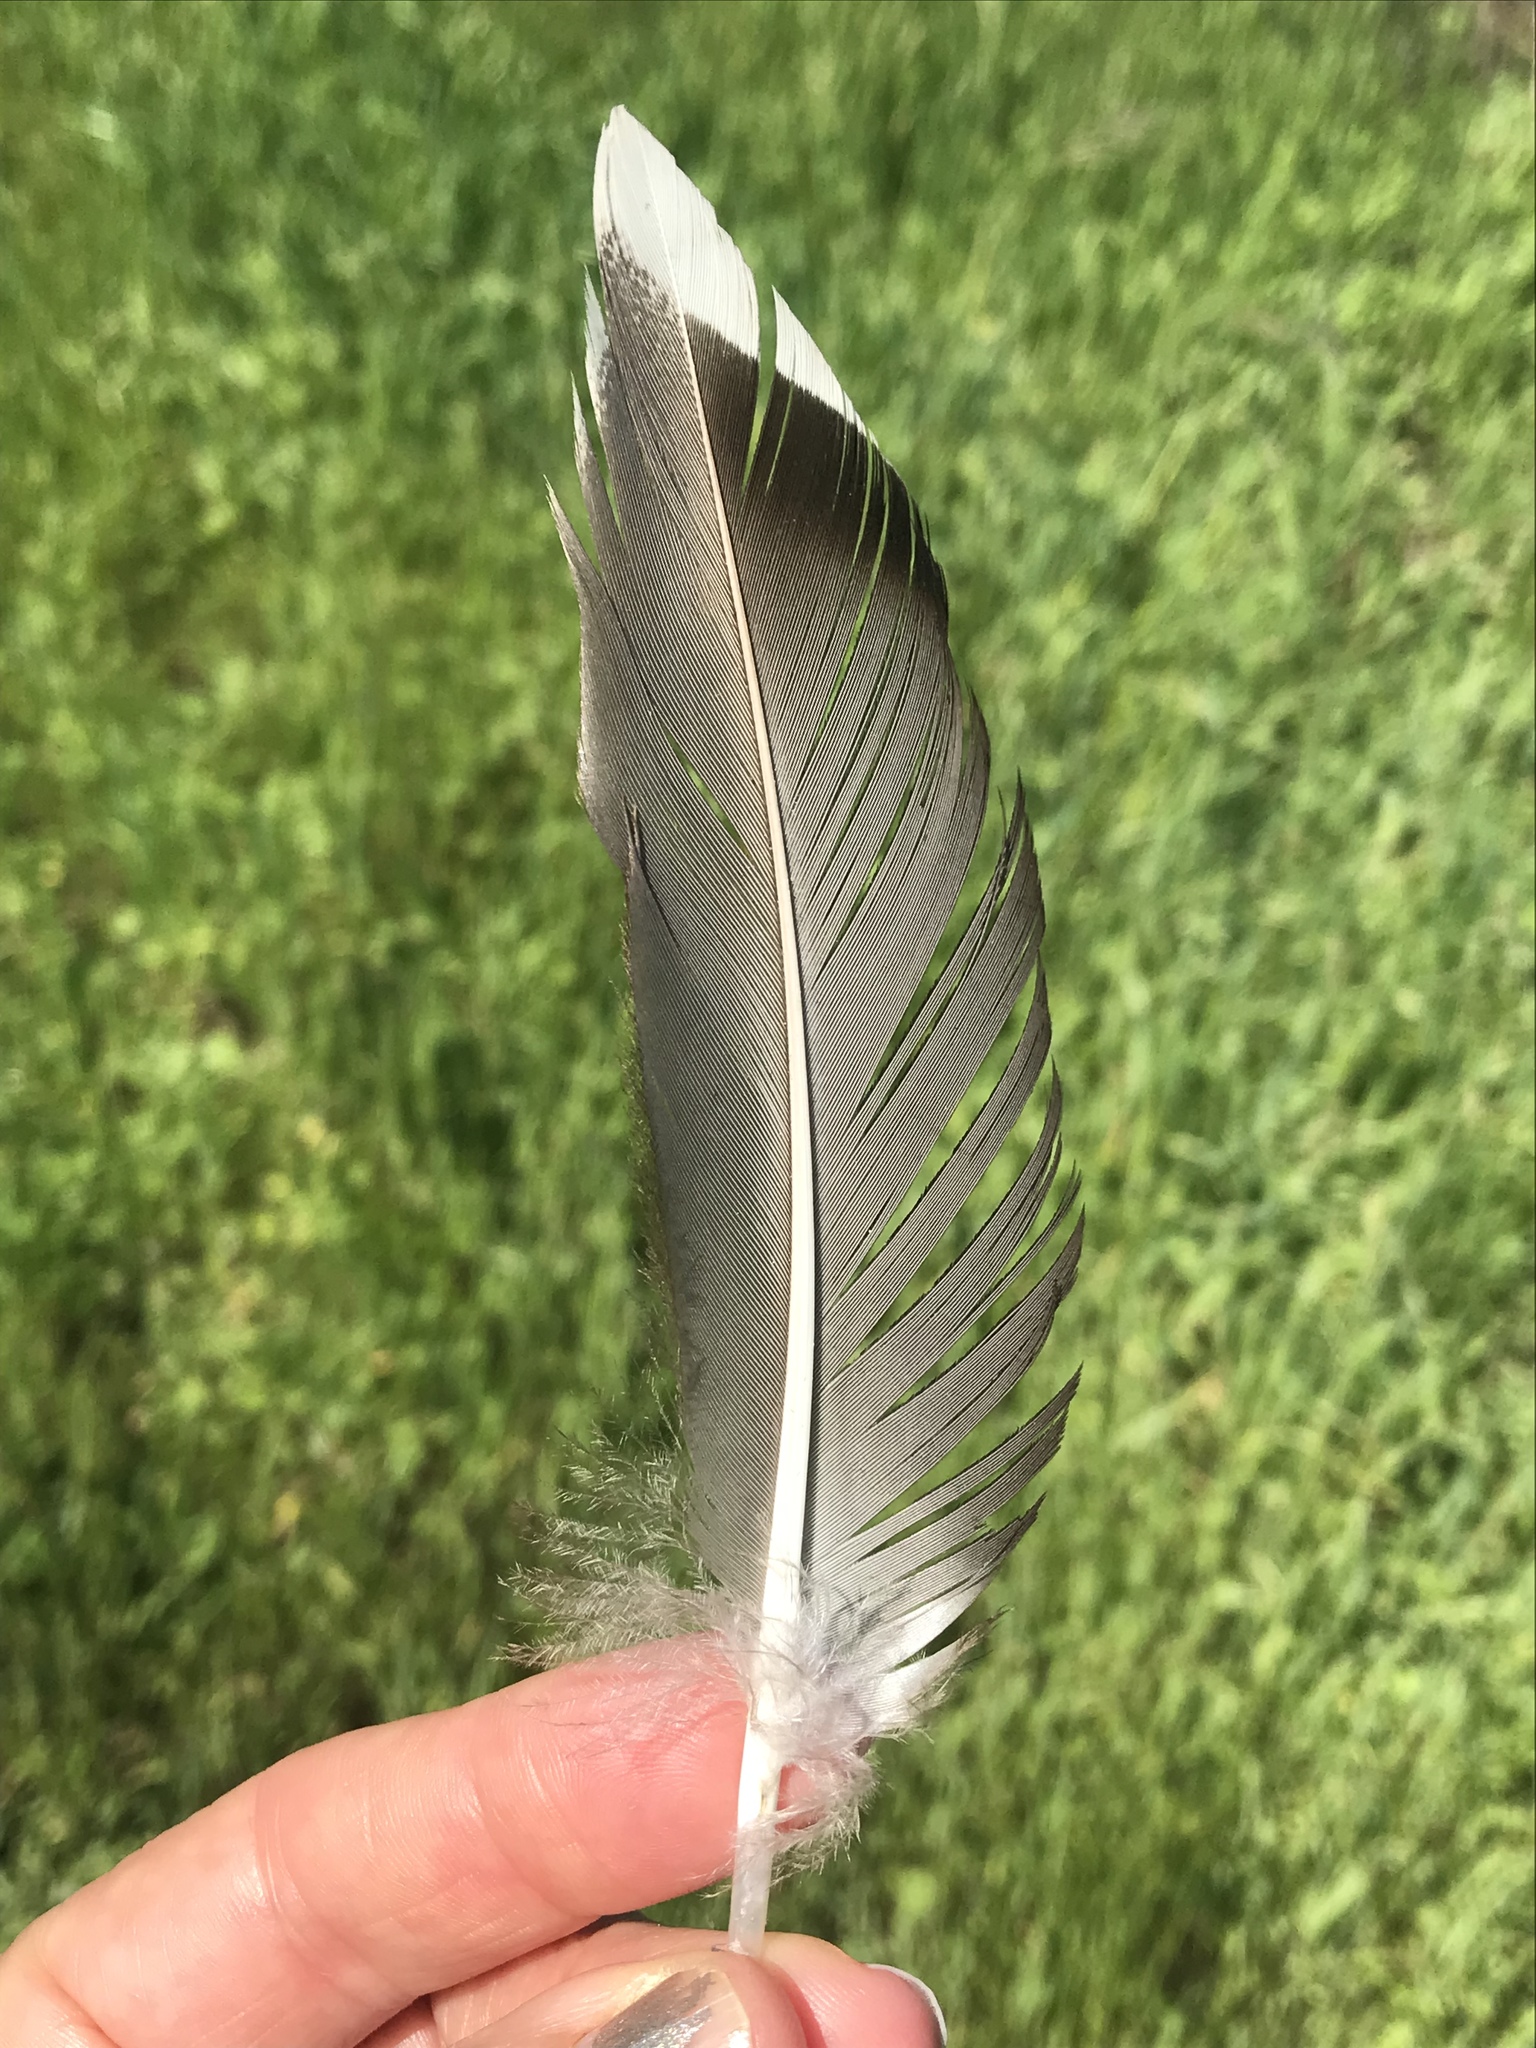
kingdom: Animalia
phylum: Chordata
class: Aves
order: Anseriformes
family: Anatidae
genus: Anas
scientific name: Anas platyrhynchos
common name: Mallard
